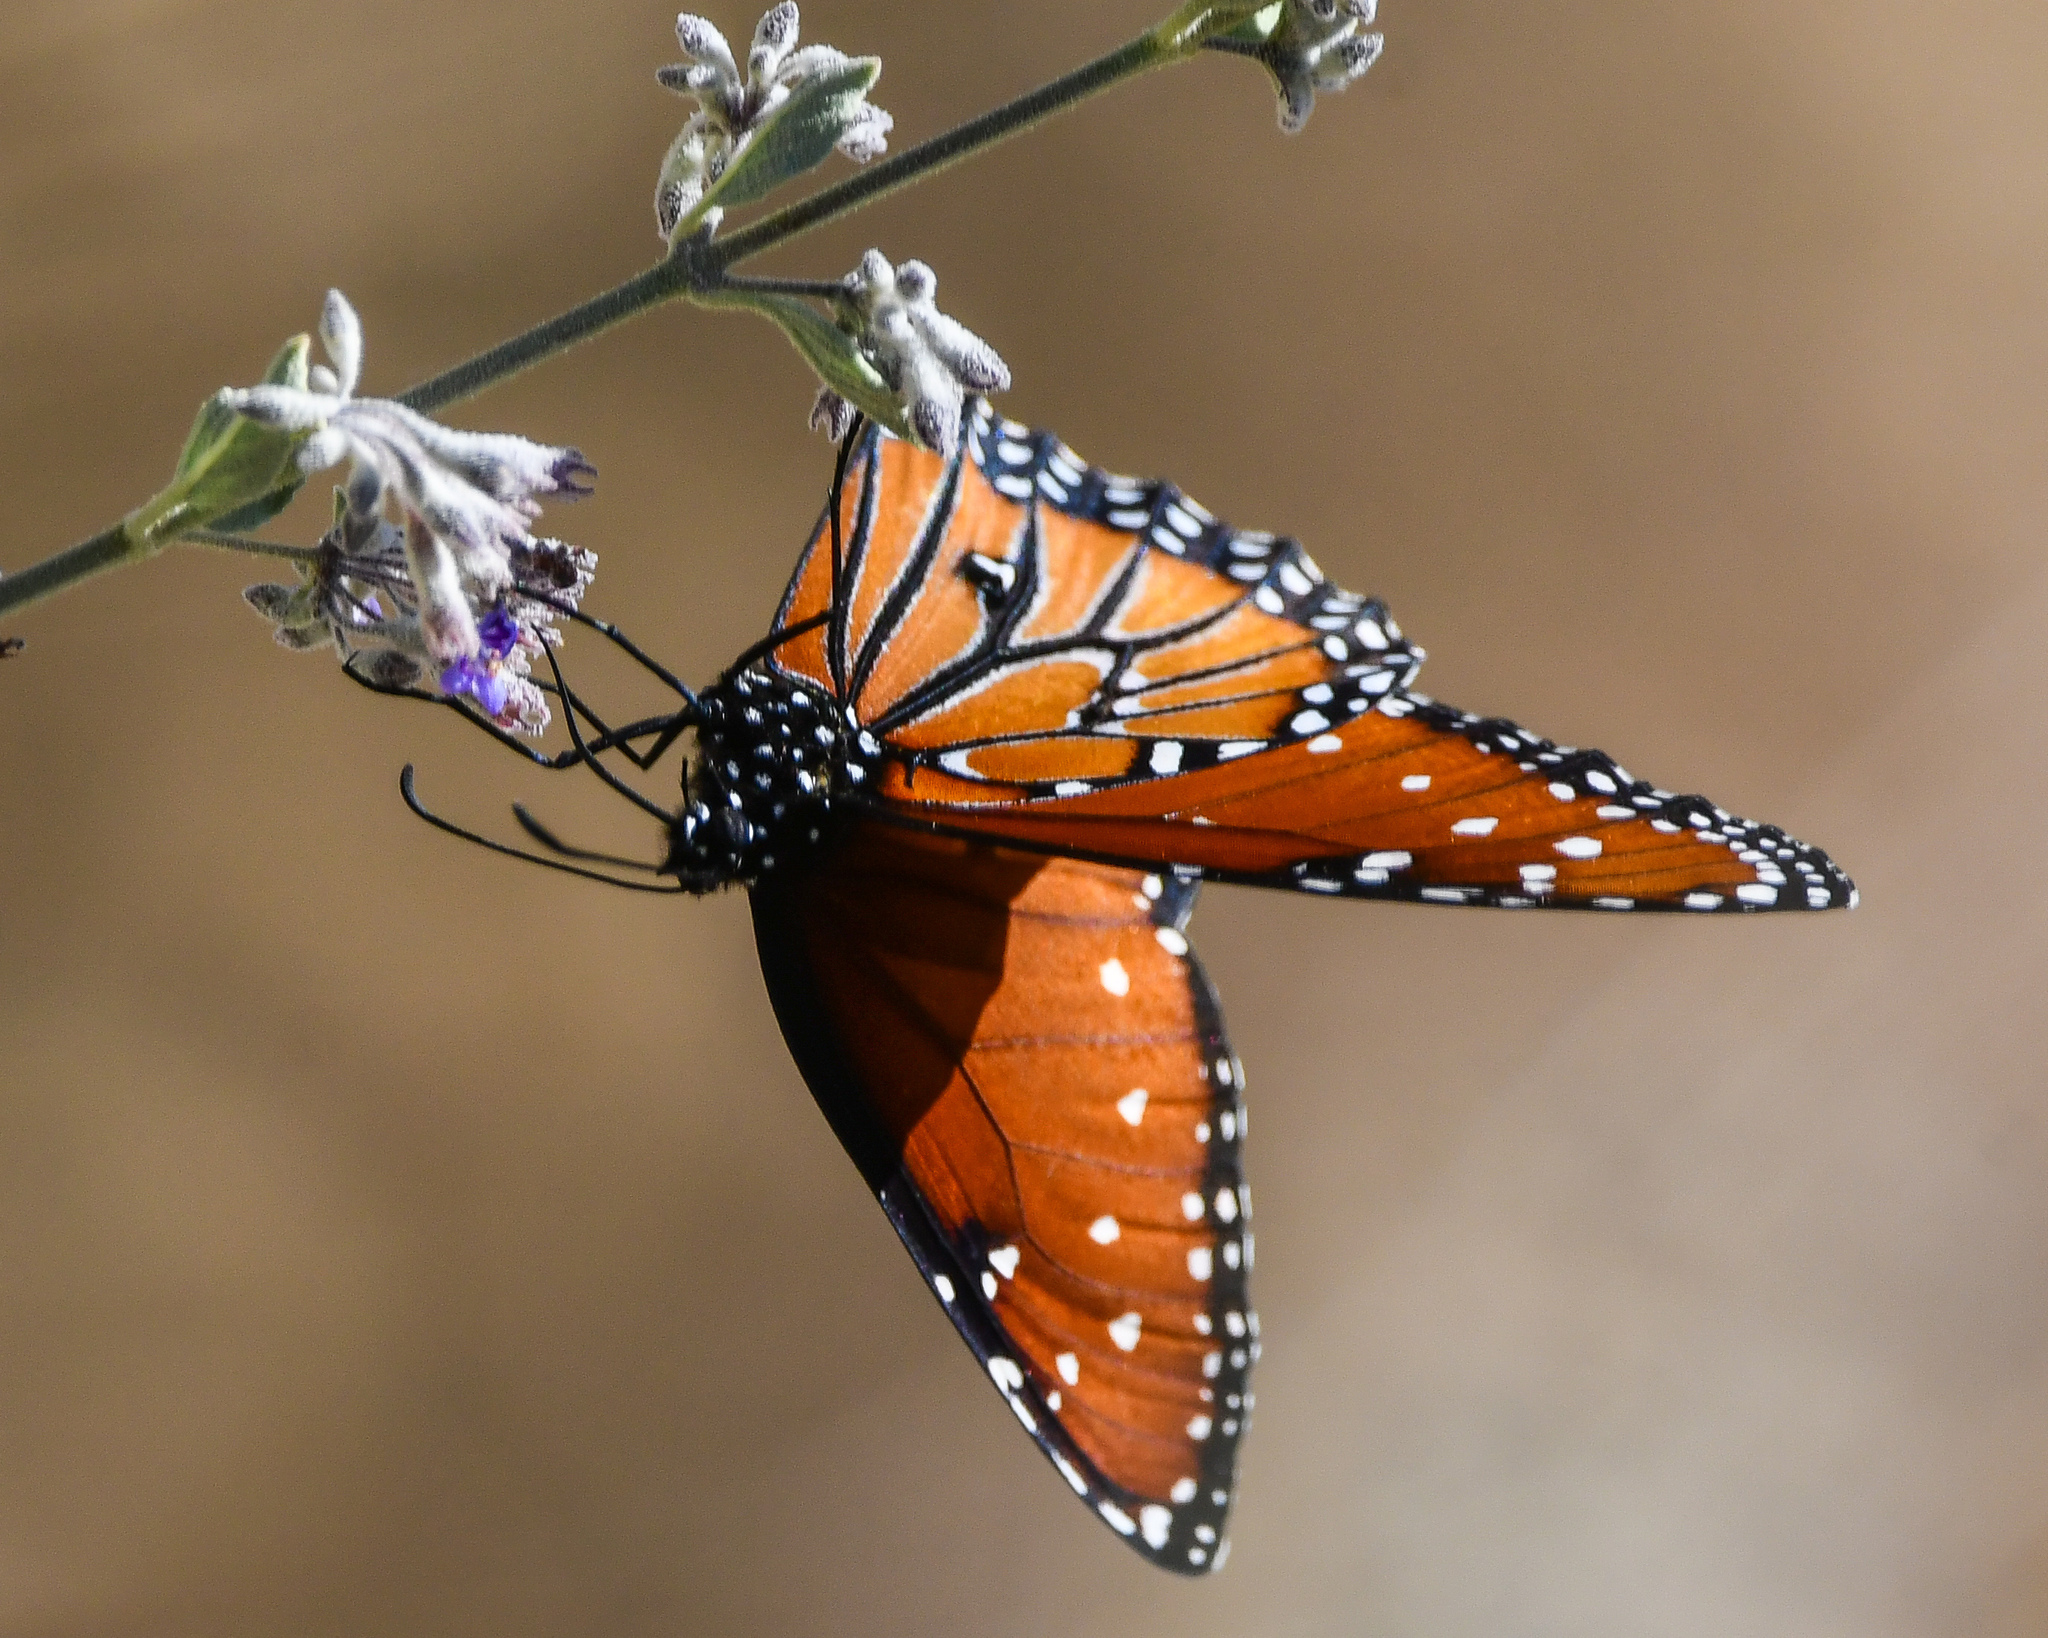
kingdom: Animalia
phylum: Arthropoda
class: Insecta
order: Lepidoptera
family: Nymphalidae
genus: Danaus
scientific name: Danaus gilippus
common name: Queen
